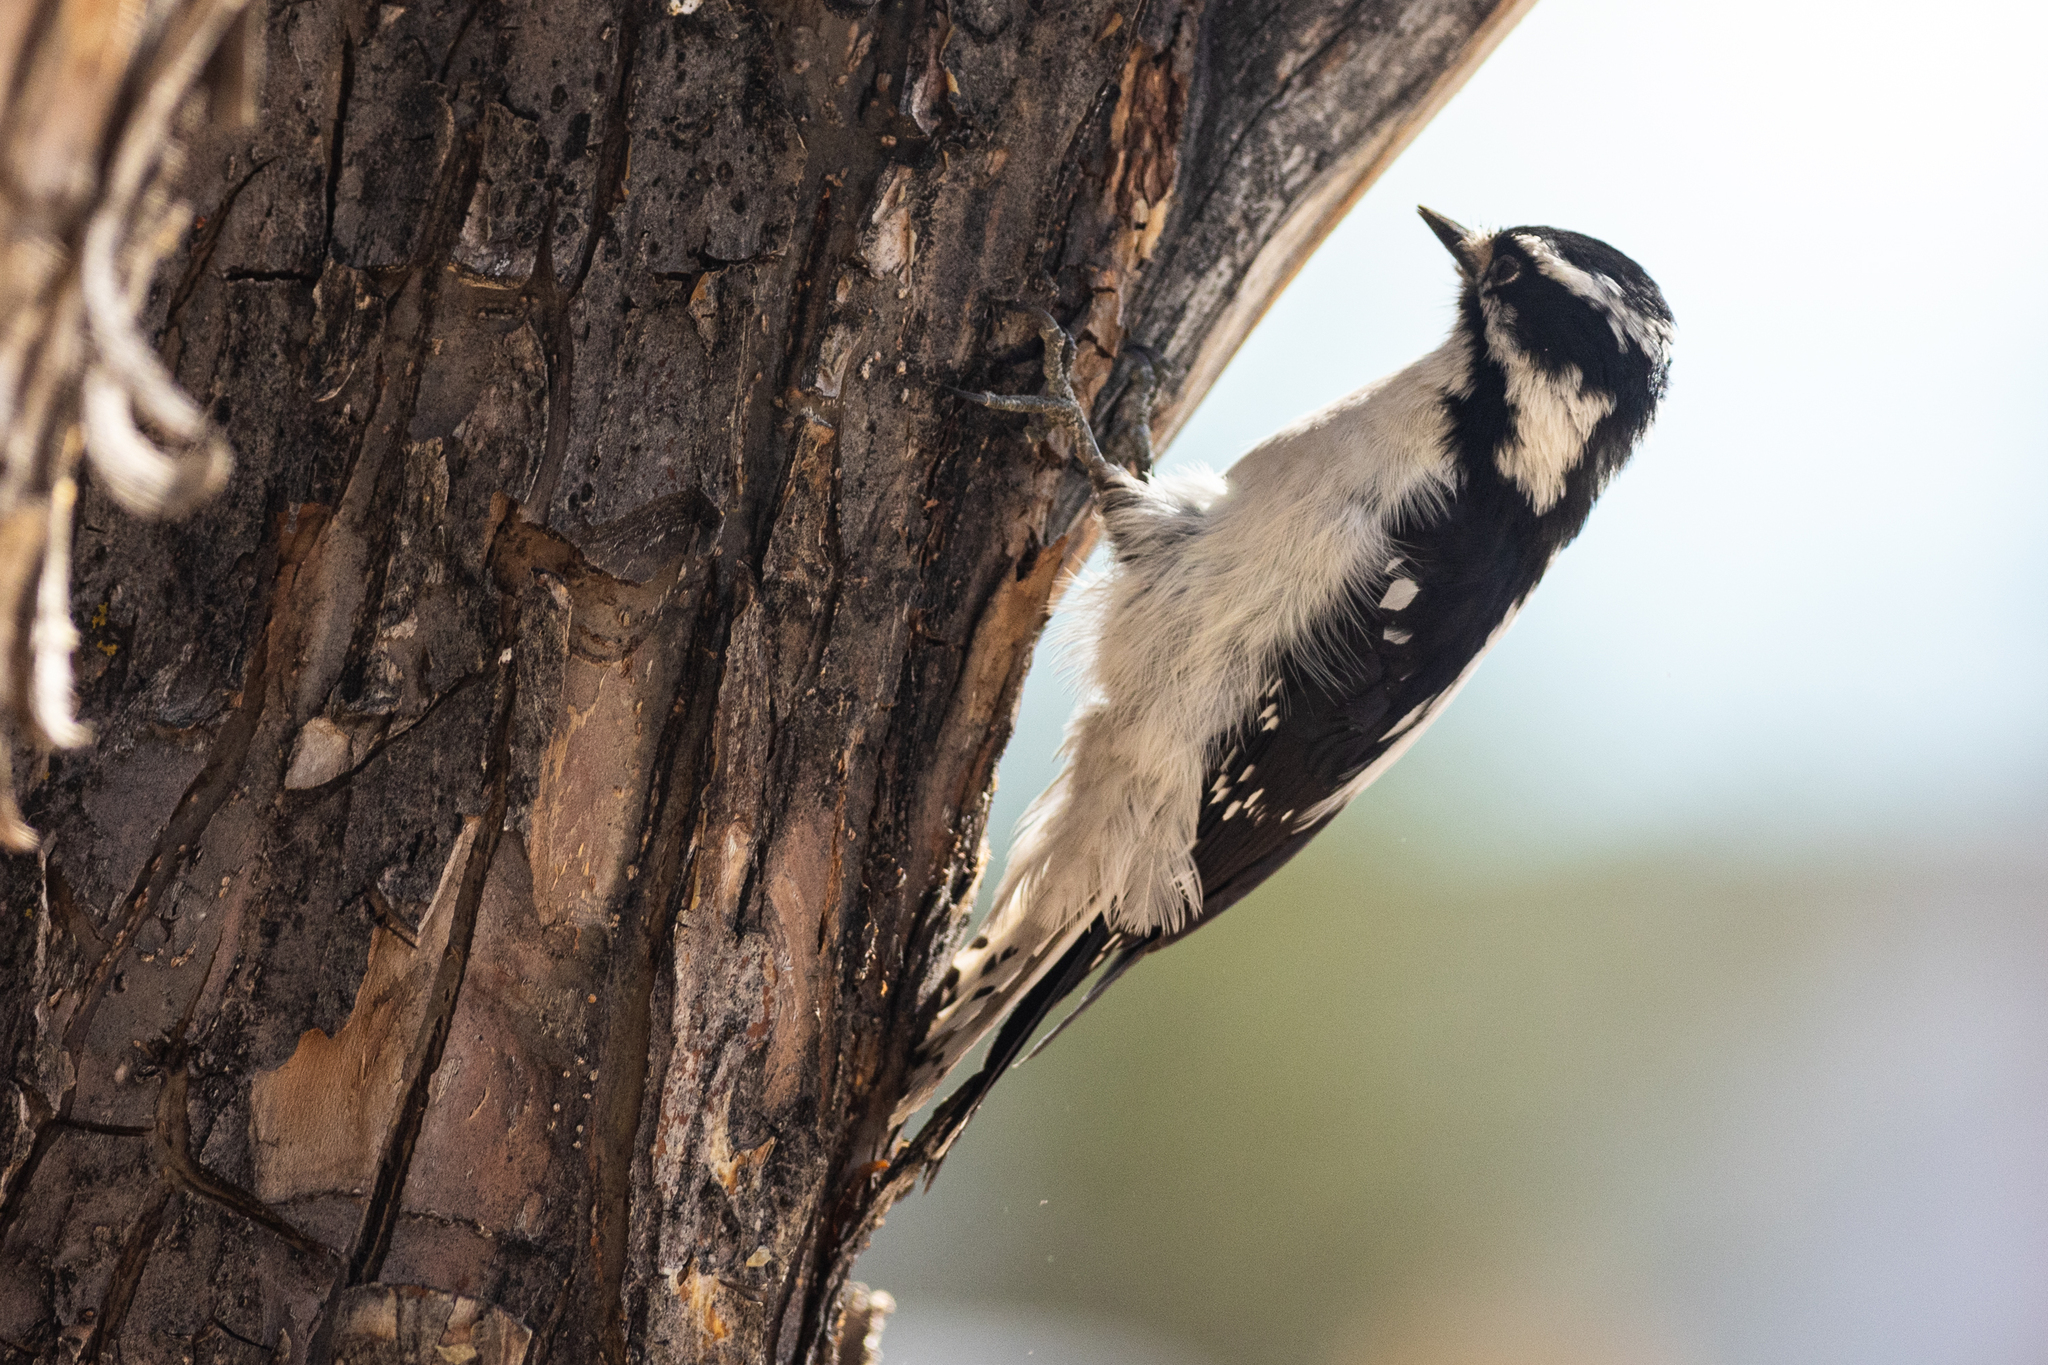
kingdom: Animalia
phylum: Chordata
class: Aves
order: Piciformes
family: Picidae
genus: Dryobates
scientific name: Dryobates pubescens
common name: Downy woodpecker
